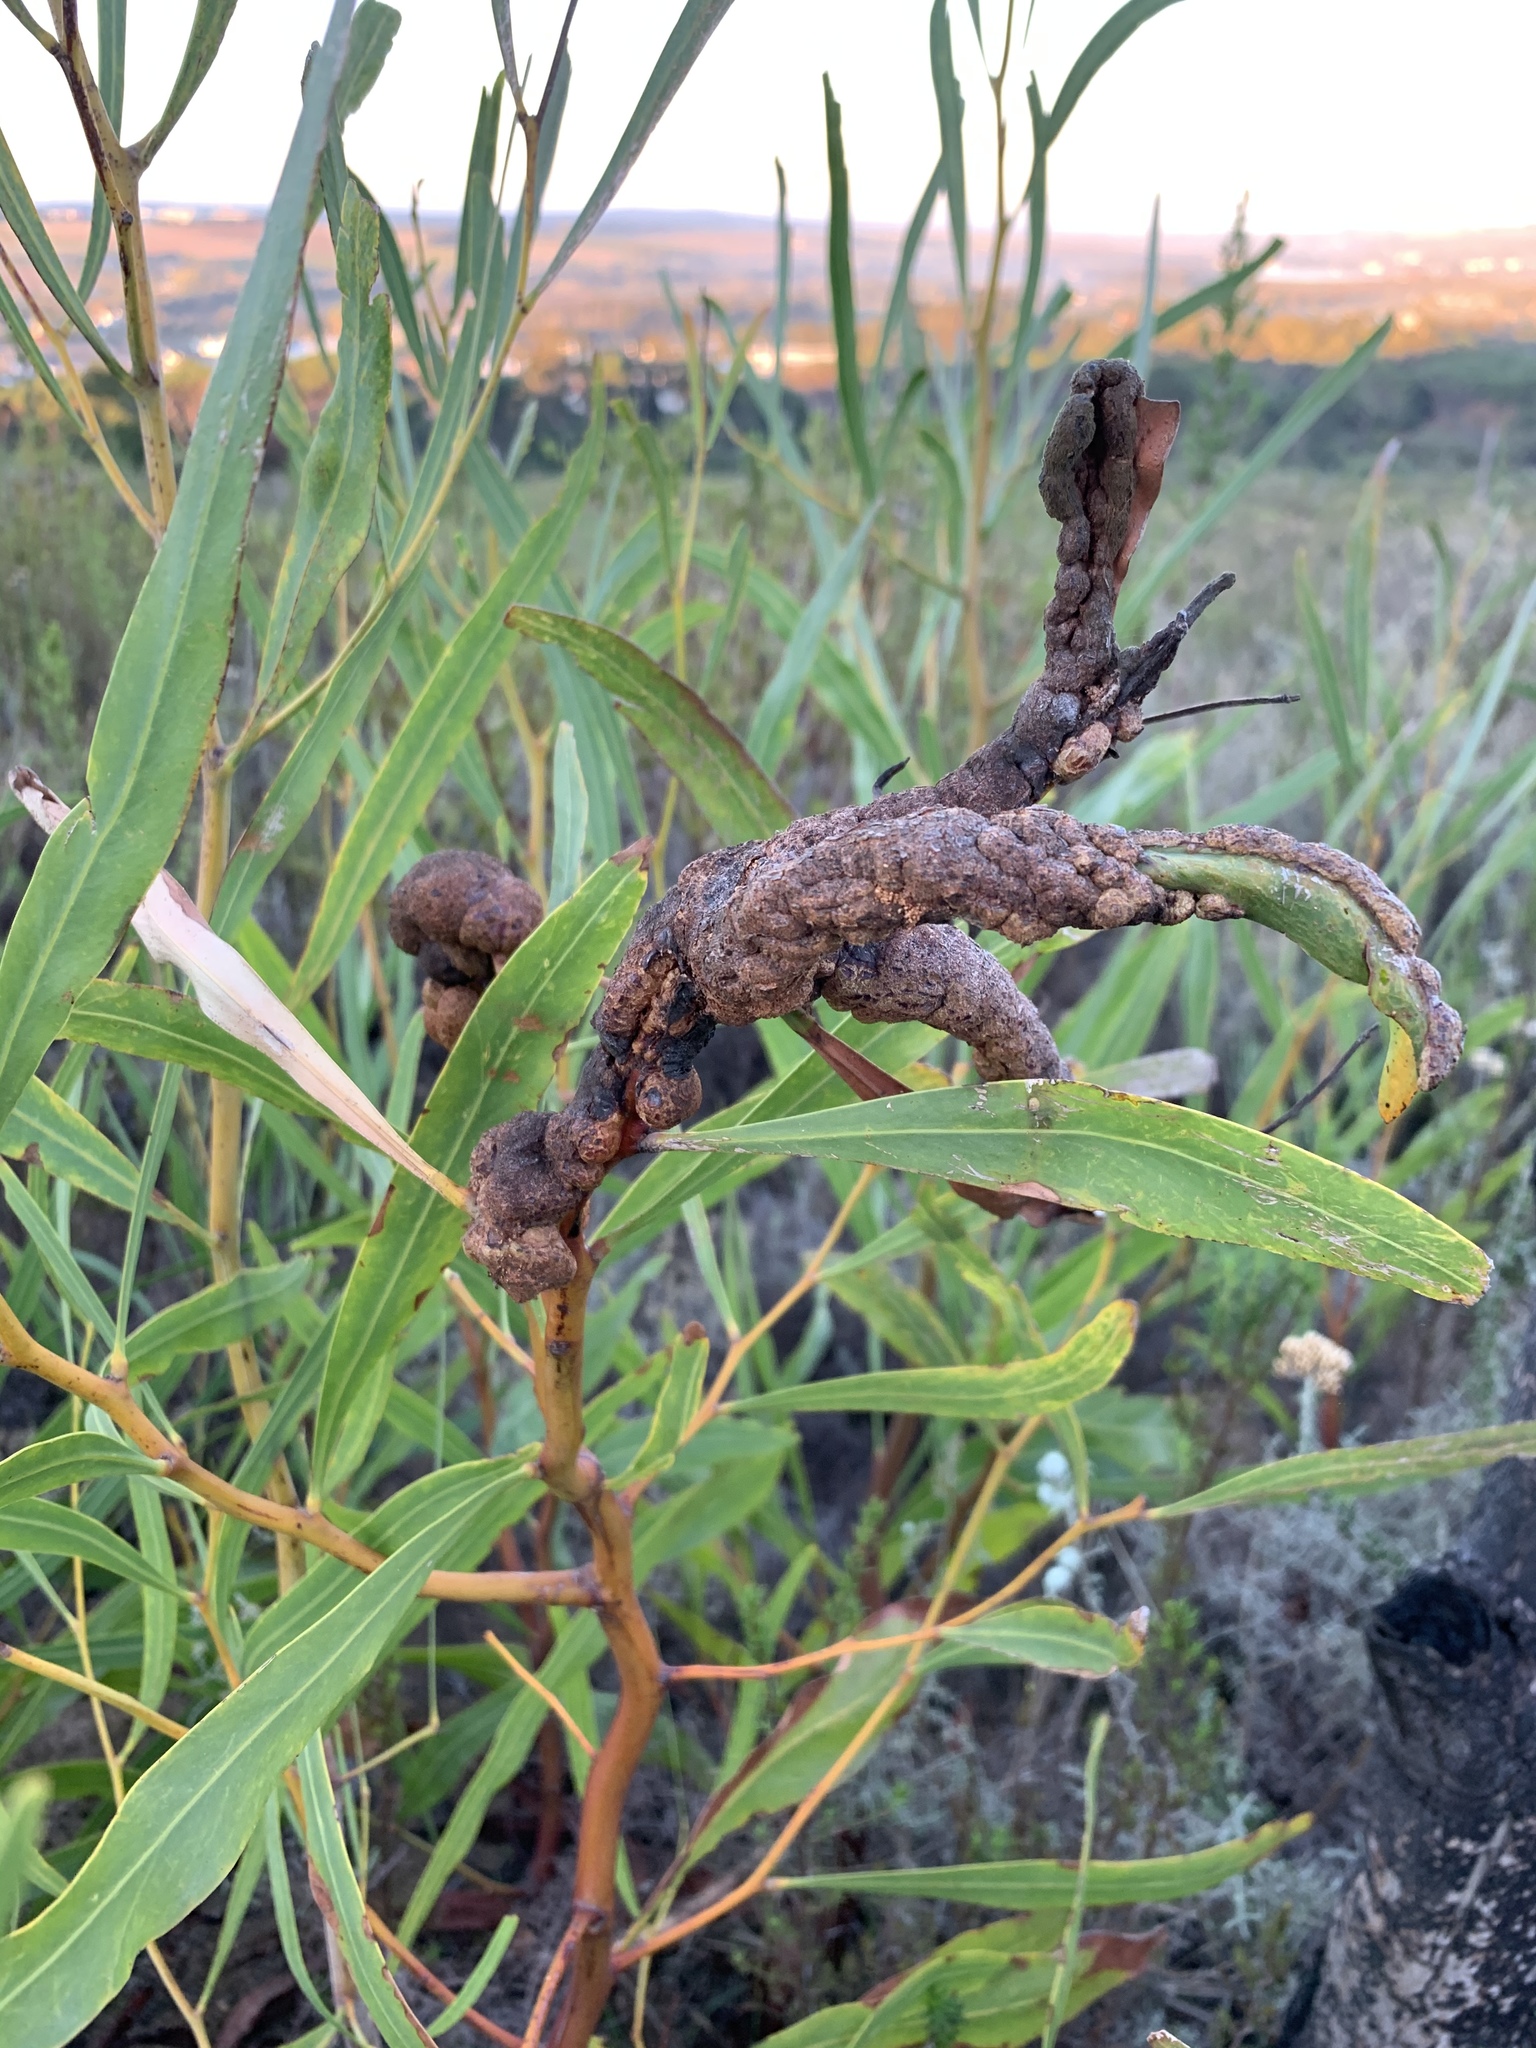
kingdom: Fungi
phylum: Basidiomycota
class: Pucciniomycetes
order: Pucciniales
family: Uromycladiaceae
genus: Uromycladium
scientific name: Uromycladium morrisii
